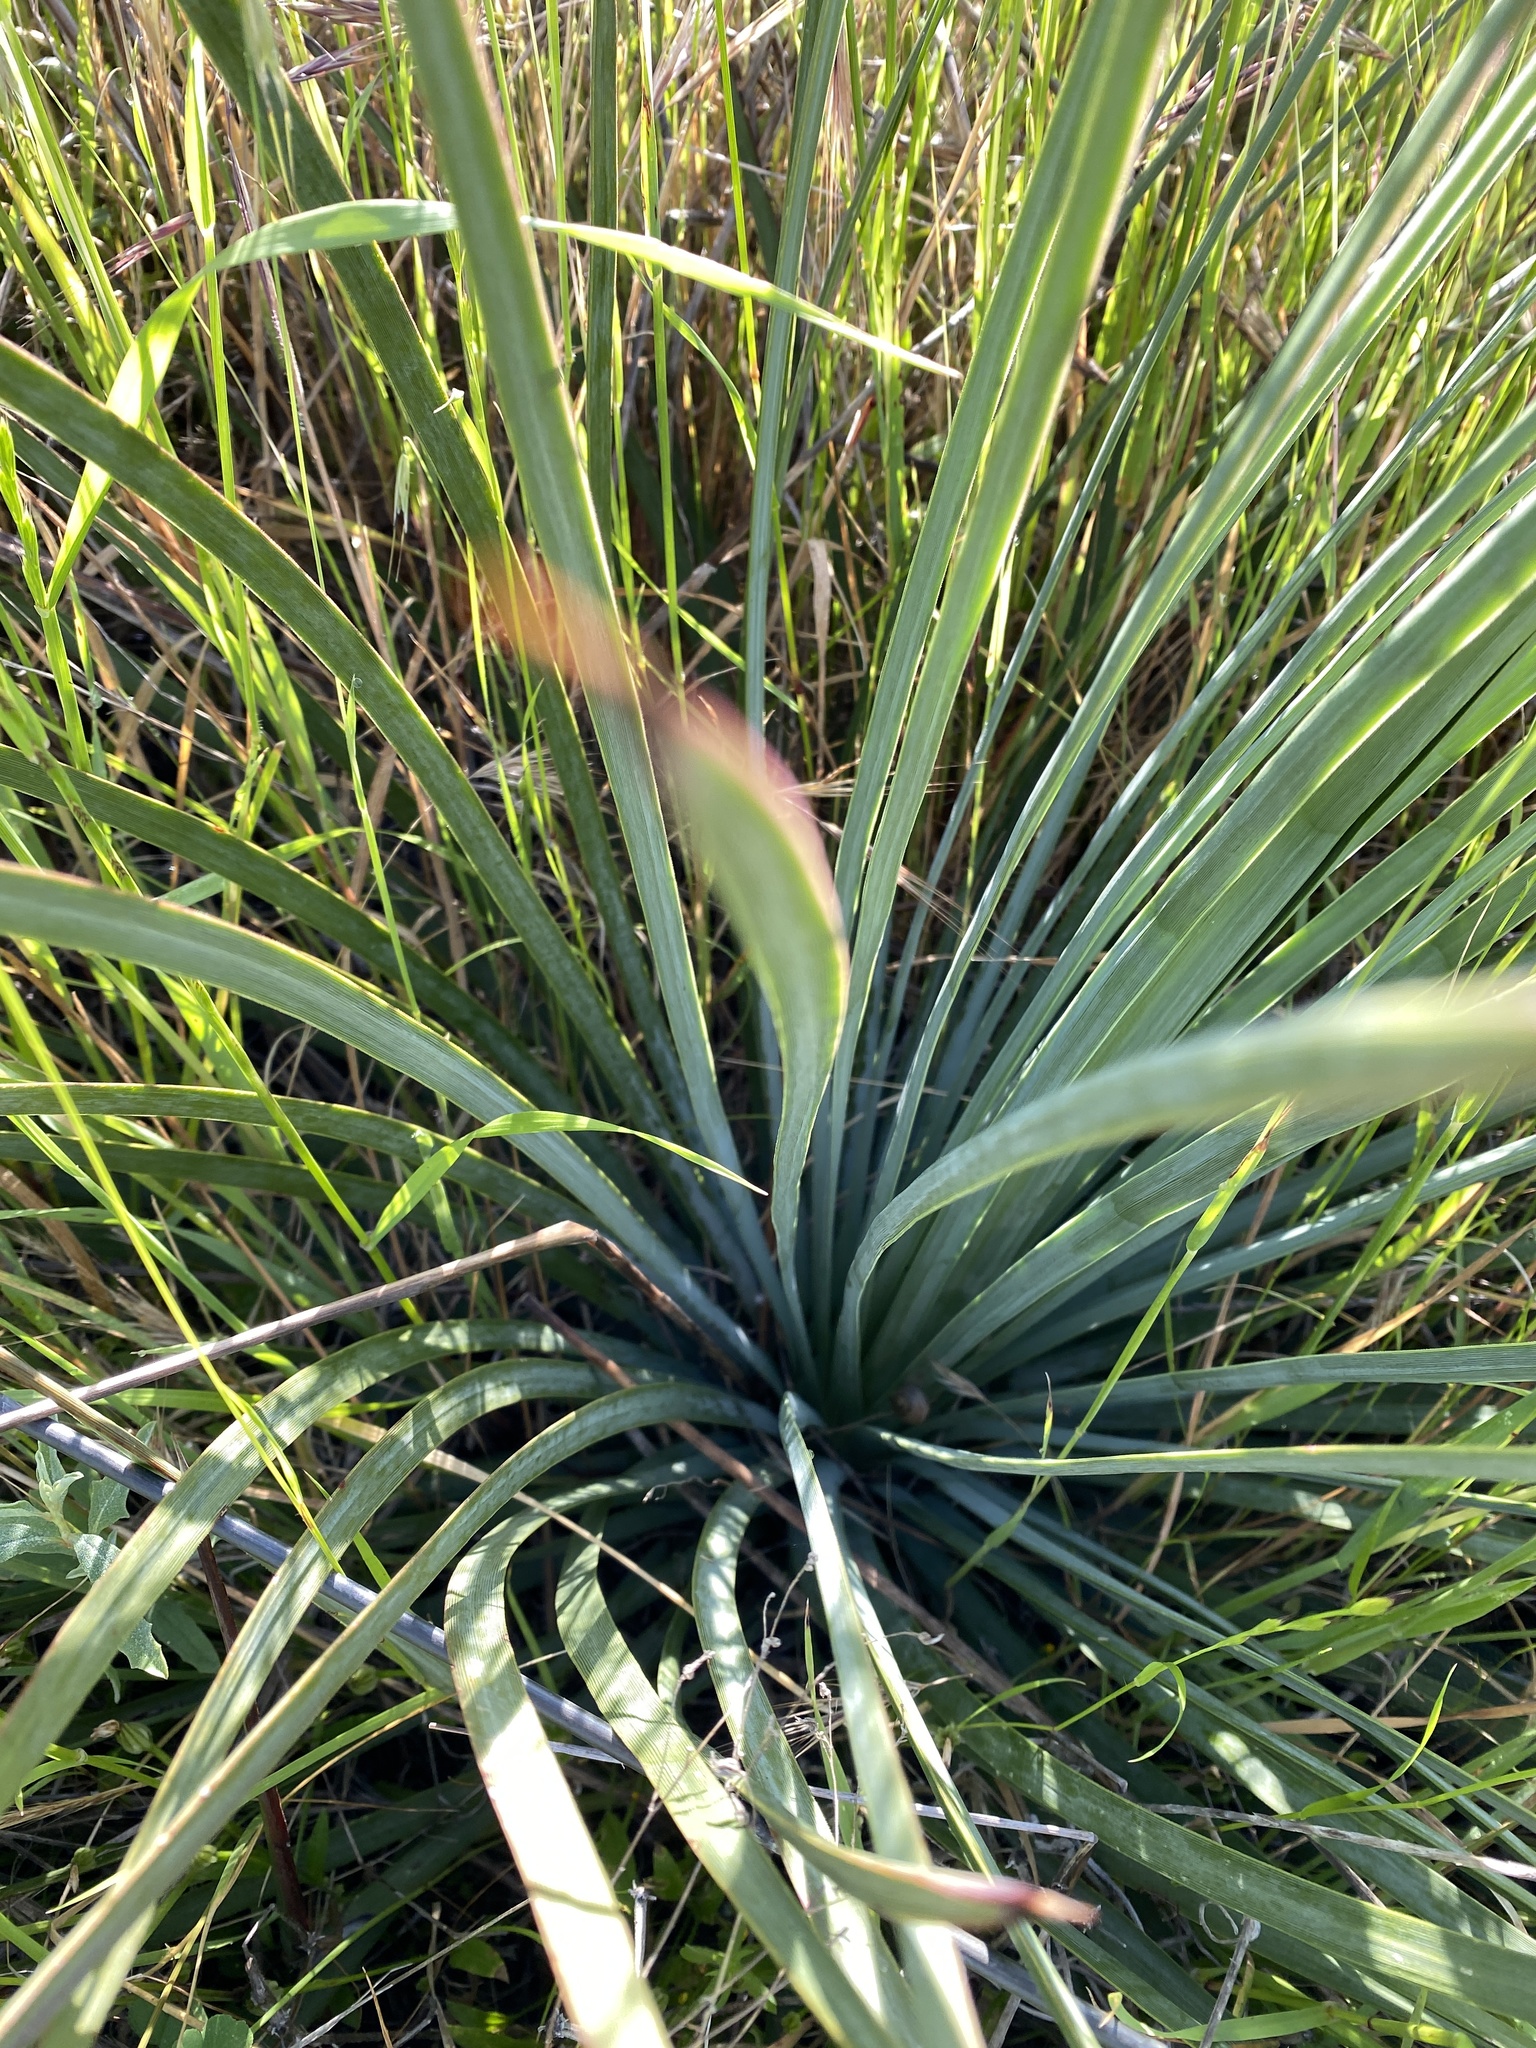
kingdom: Plantae
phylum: Tracheophyta
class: Liliopsida
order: Asparagales
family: Asparagaceae
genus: Hesperoyucca
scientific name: Hesperoyucca whipplei
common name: Our lord's-candle
